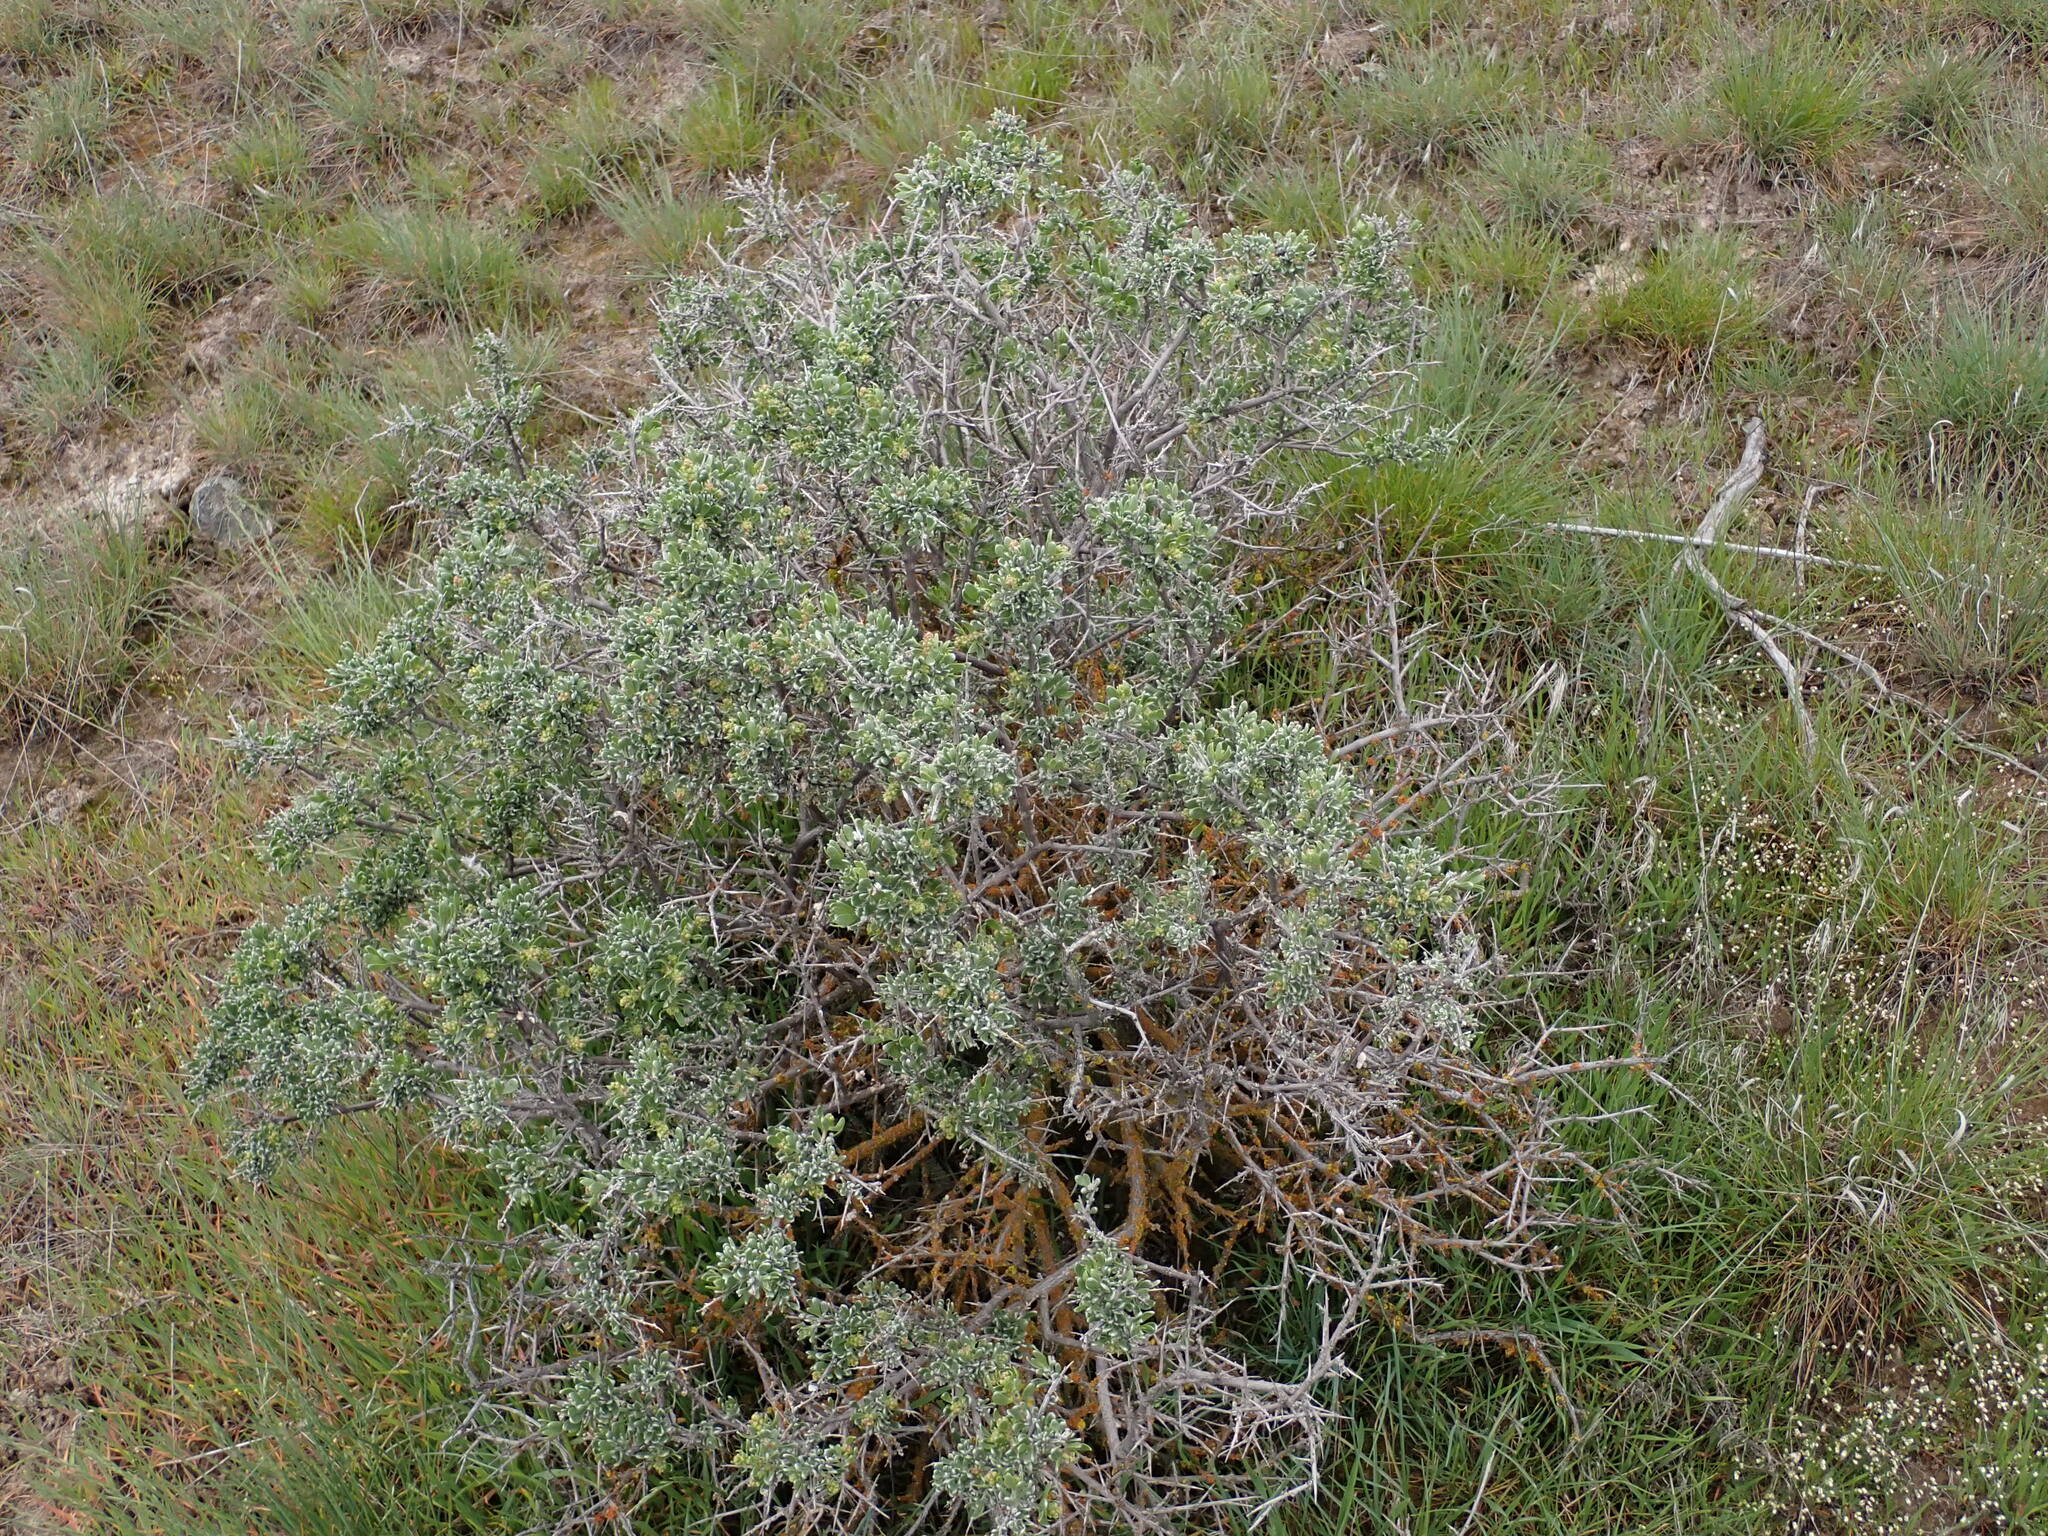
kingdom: Plantae
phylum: Tracheophyta
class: Magnoliopsida
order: Caryophyllales
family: Amaranthaceae
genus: Grayia
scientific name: Grayia spinosa
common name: Spiny hopsage
